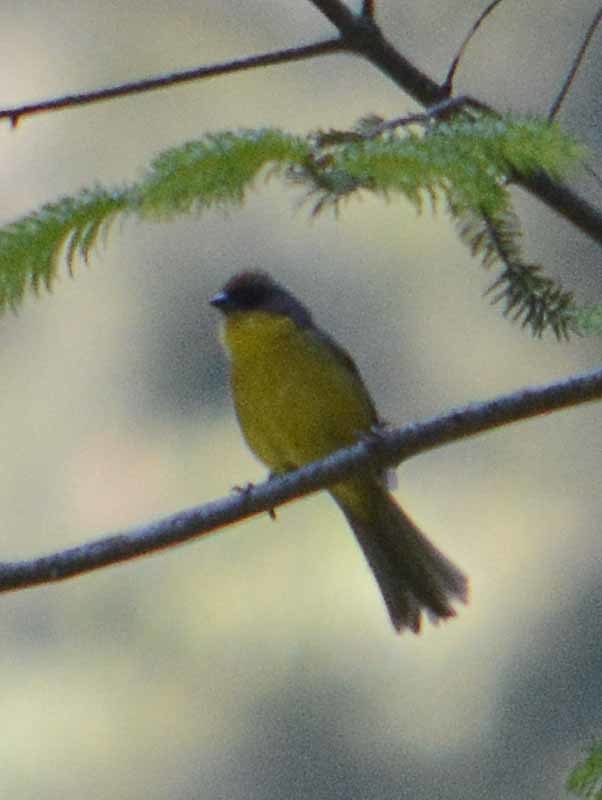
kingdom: Animalia
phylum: Chordata
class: Aves
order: Passeriformes
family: Passerellidae
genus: Atlapetes
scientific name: Atlapetes pileatus
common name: Rufous-capped brush-finch
